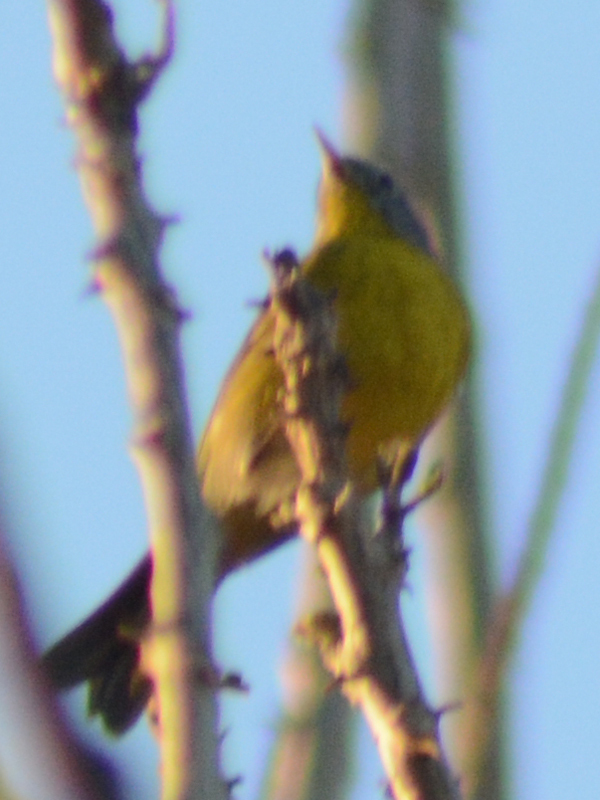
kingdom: Animalia
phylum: Chordata
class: Aves
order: Passeriformes
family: Parulidae
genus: Leiothlypis
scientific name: Leiothlypis ruficapilla
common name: Nashville warbler
